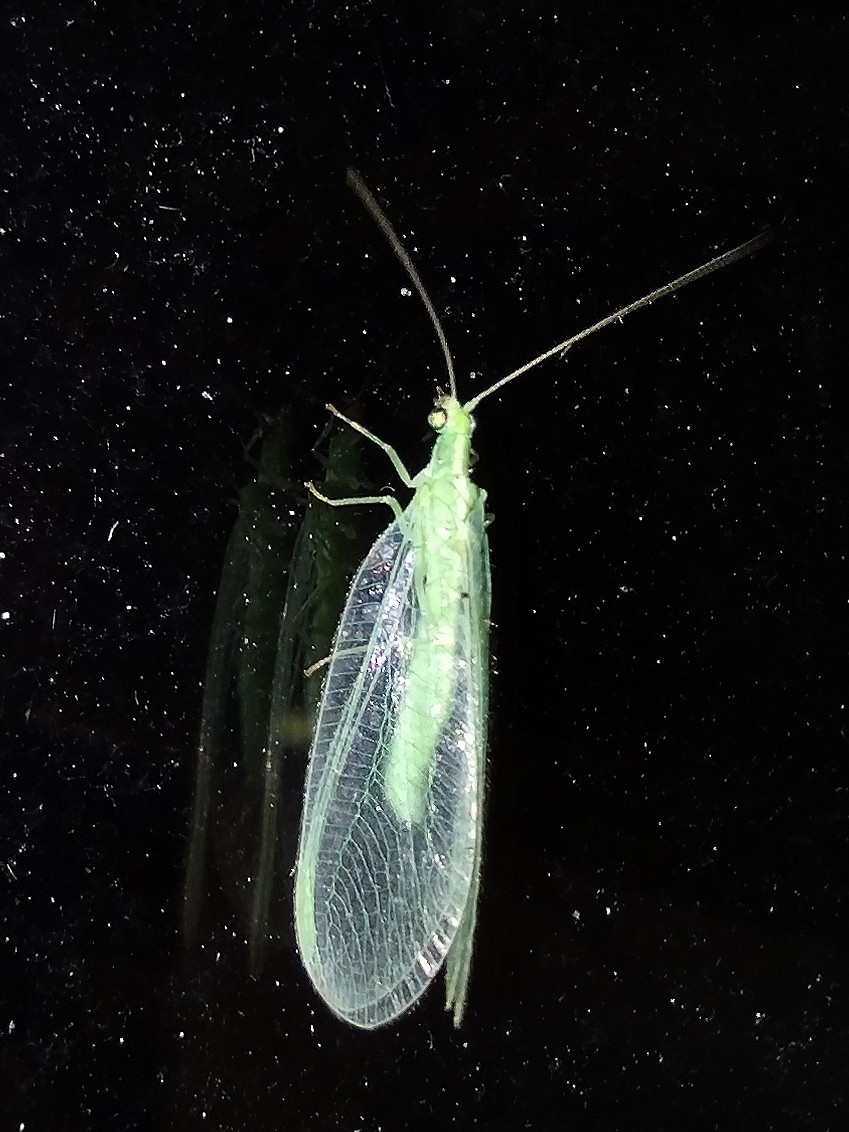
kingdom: Animalia
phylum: Arthropoda
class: Insecta
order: Neuroptera
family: Chrysopidae
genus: Chrysoperla
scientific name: Chrysoperla
